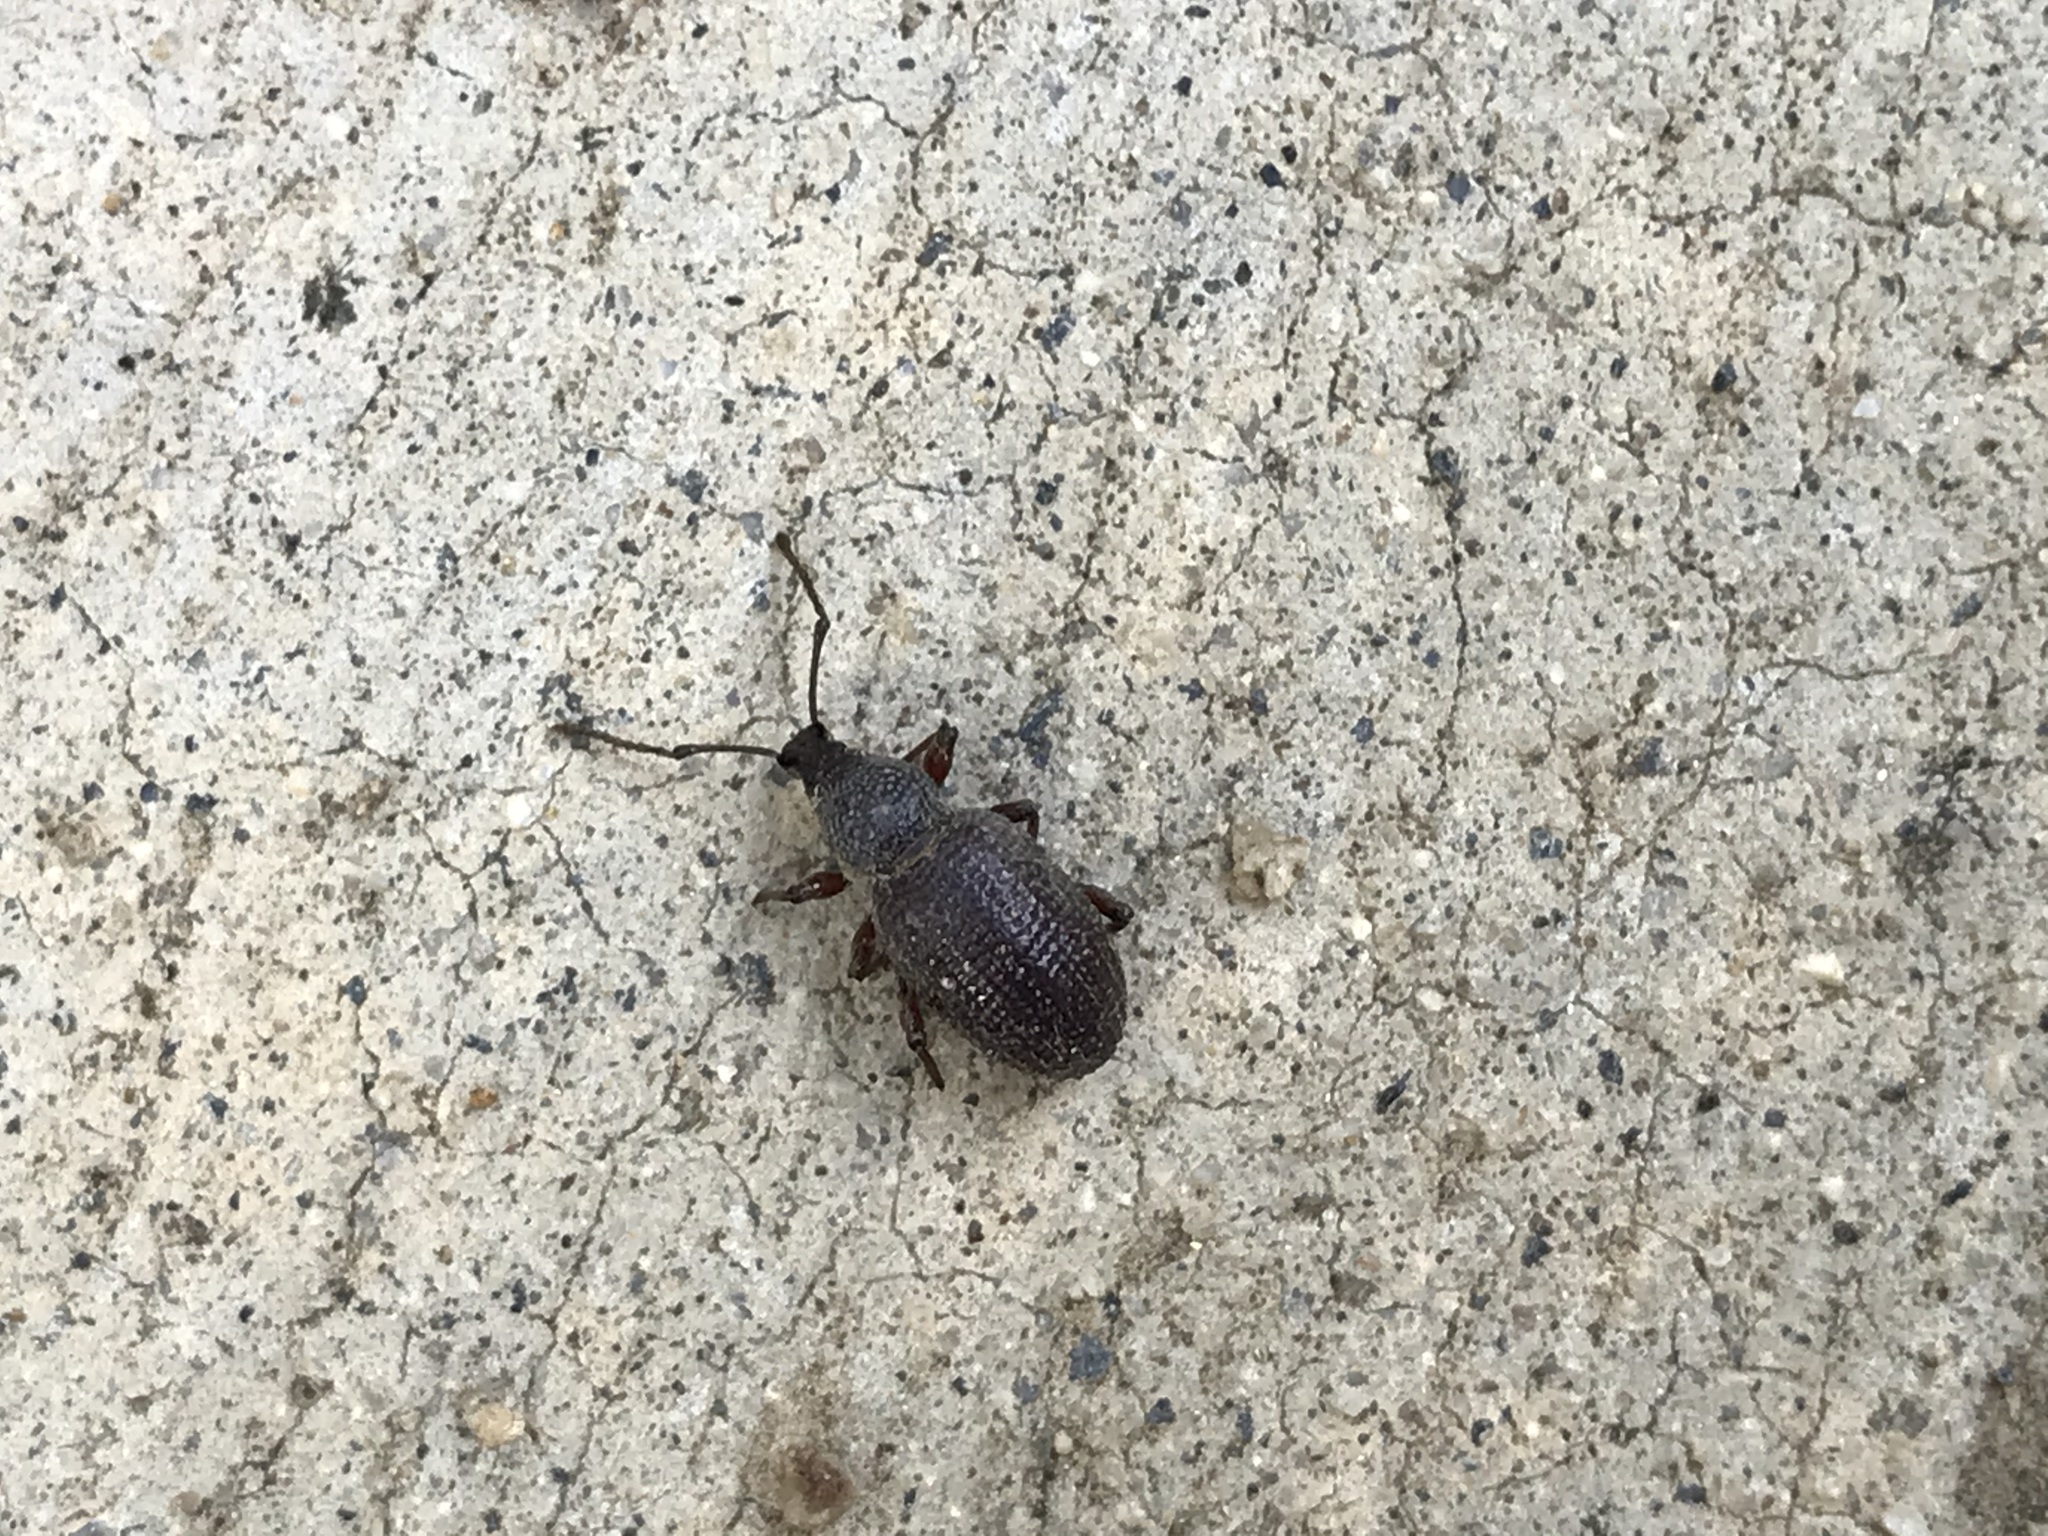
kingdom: Animalia
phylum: Arthropoda
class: Insecta
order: Coleoptera
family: Curculionidae
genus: Otiorhynchus
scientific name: Otiorhynchus cribricollis
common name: Weevil
